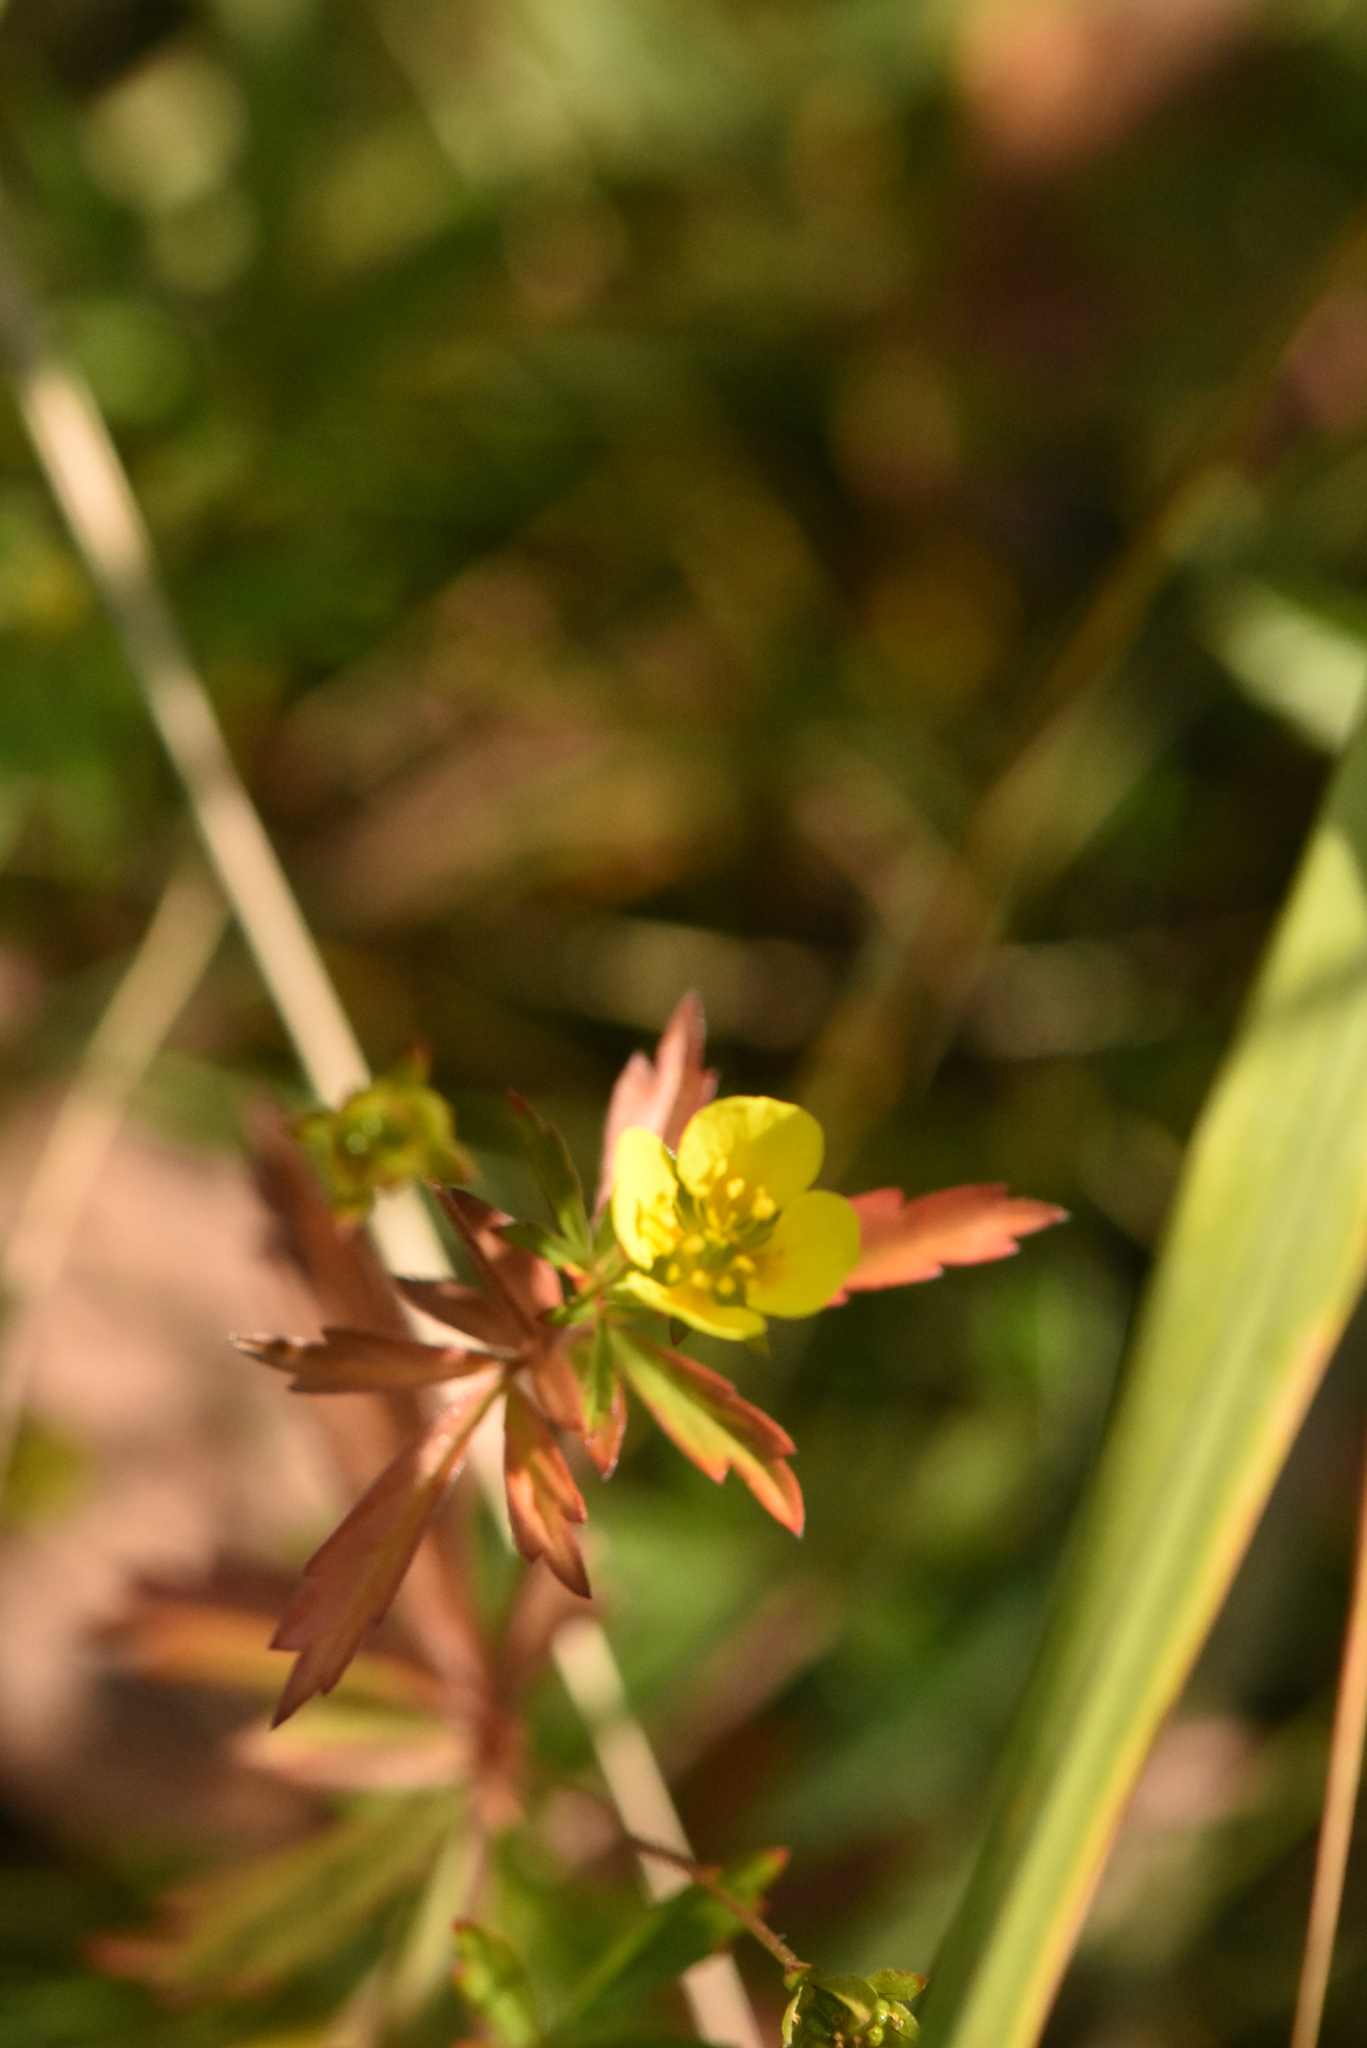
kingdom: Plantae
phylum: Tracheophyta
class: Magnoliopsida
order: Rosales
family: Rosaceae
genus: Potentilla
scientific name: Potentilla erecta
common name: Tormentil
